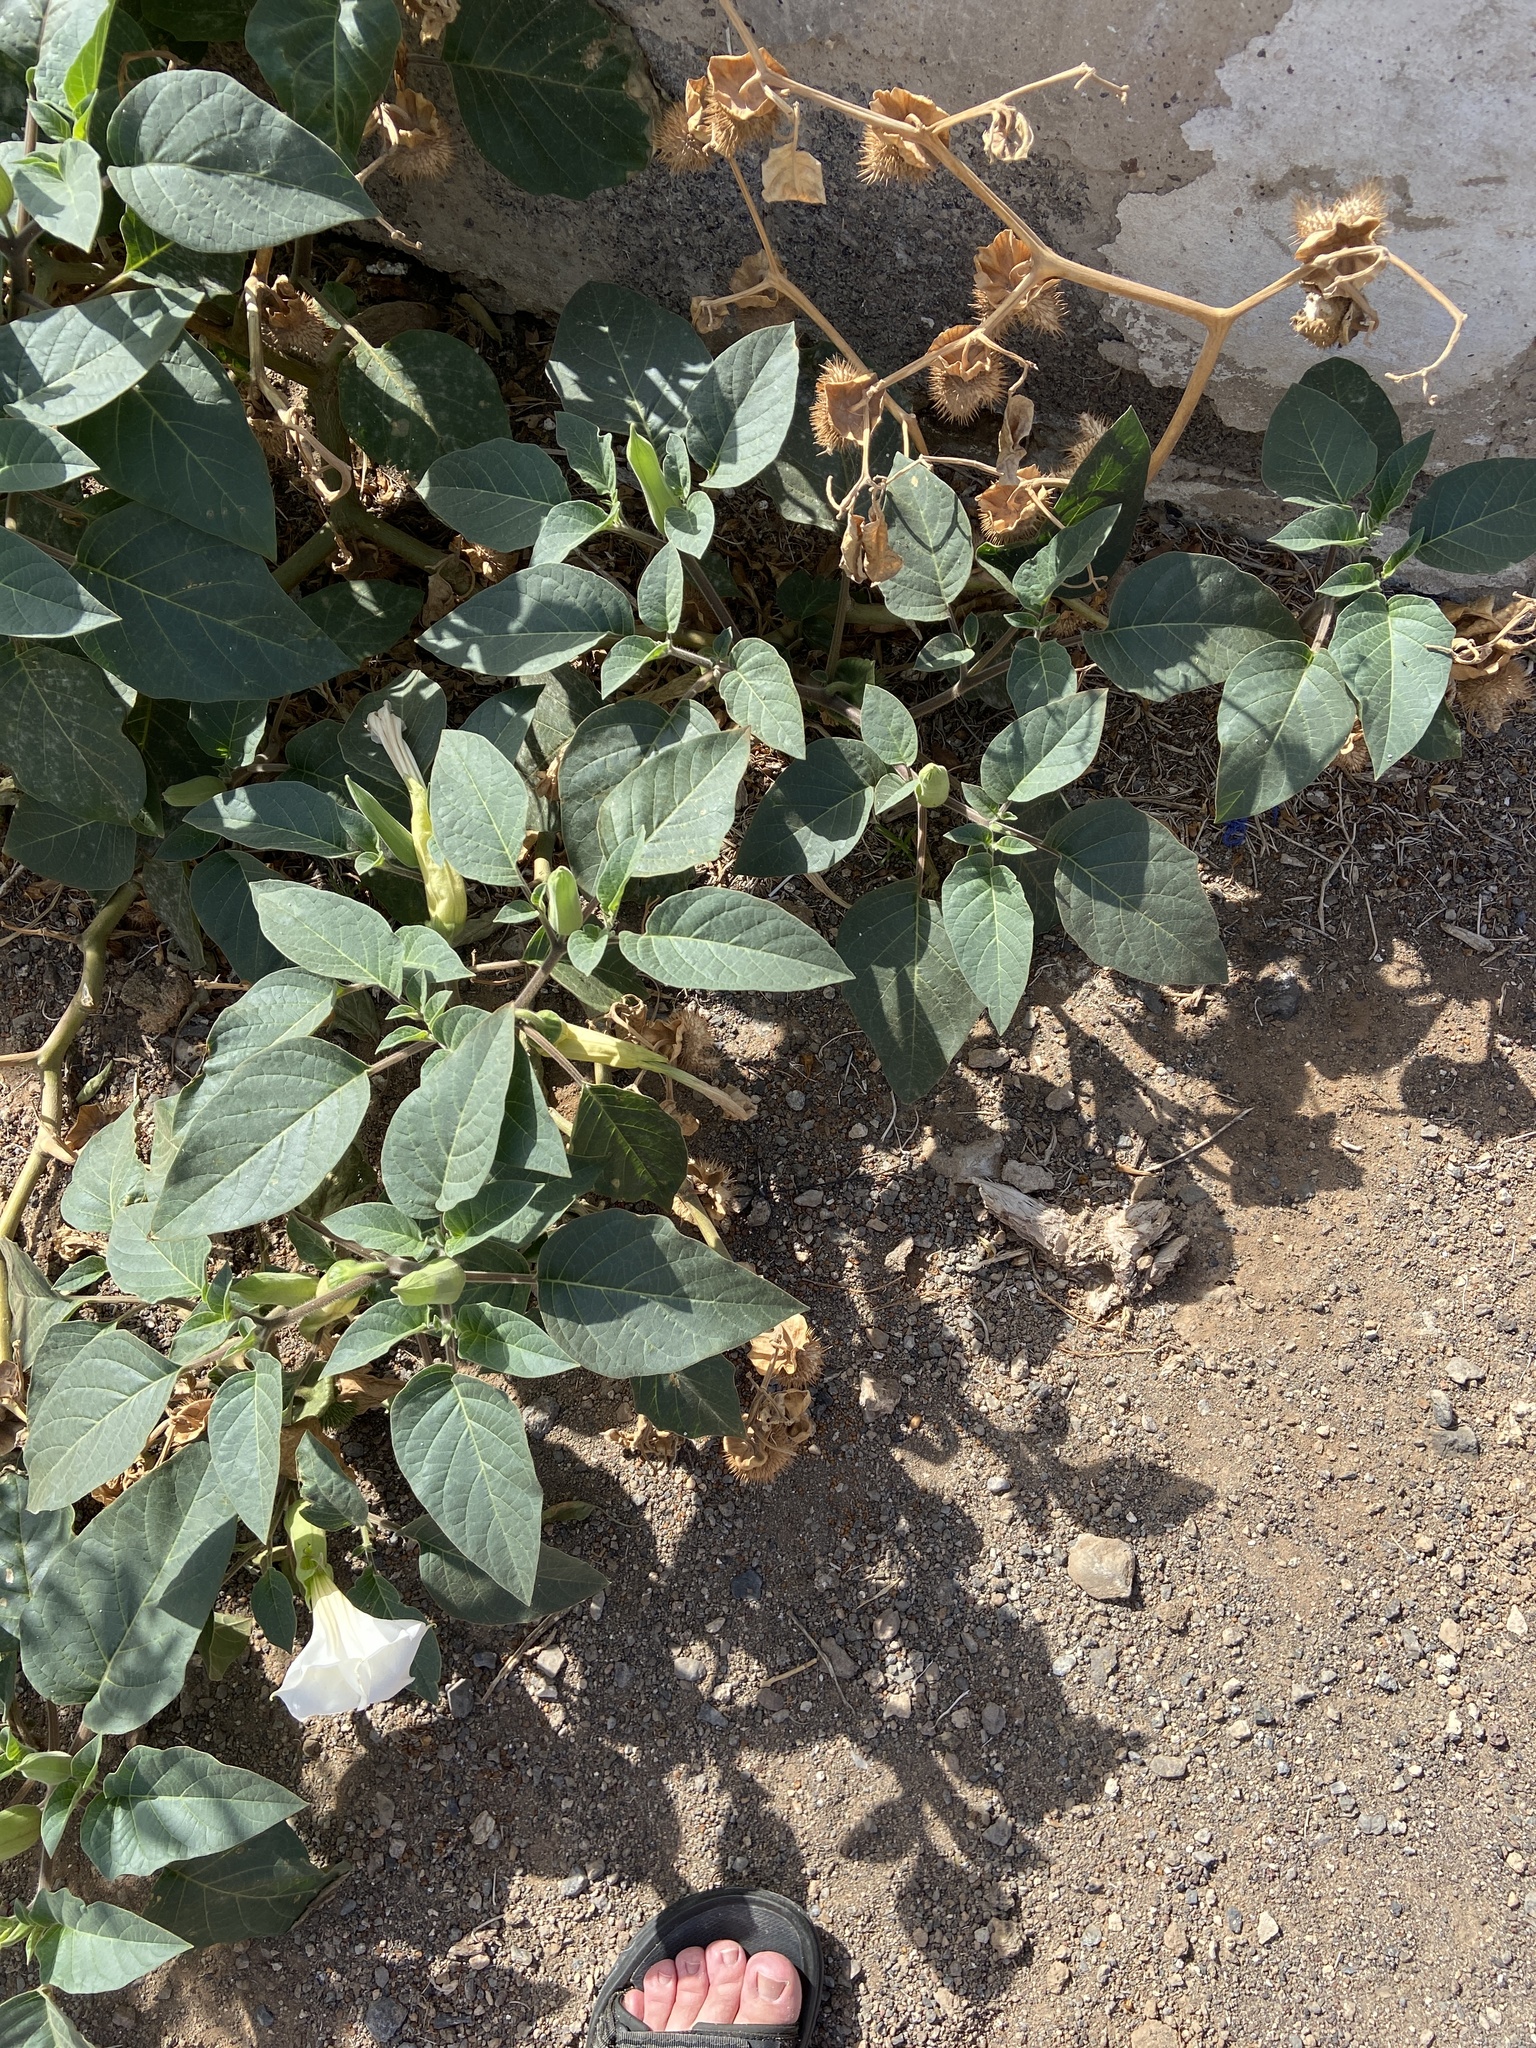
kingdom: Plantae
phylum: Tracheophyta
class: Magnoliopsida
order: Solanales
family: Solanaceae
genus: Datura
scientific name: Datura innoxia
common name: Downy thorn-apple
